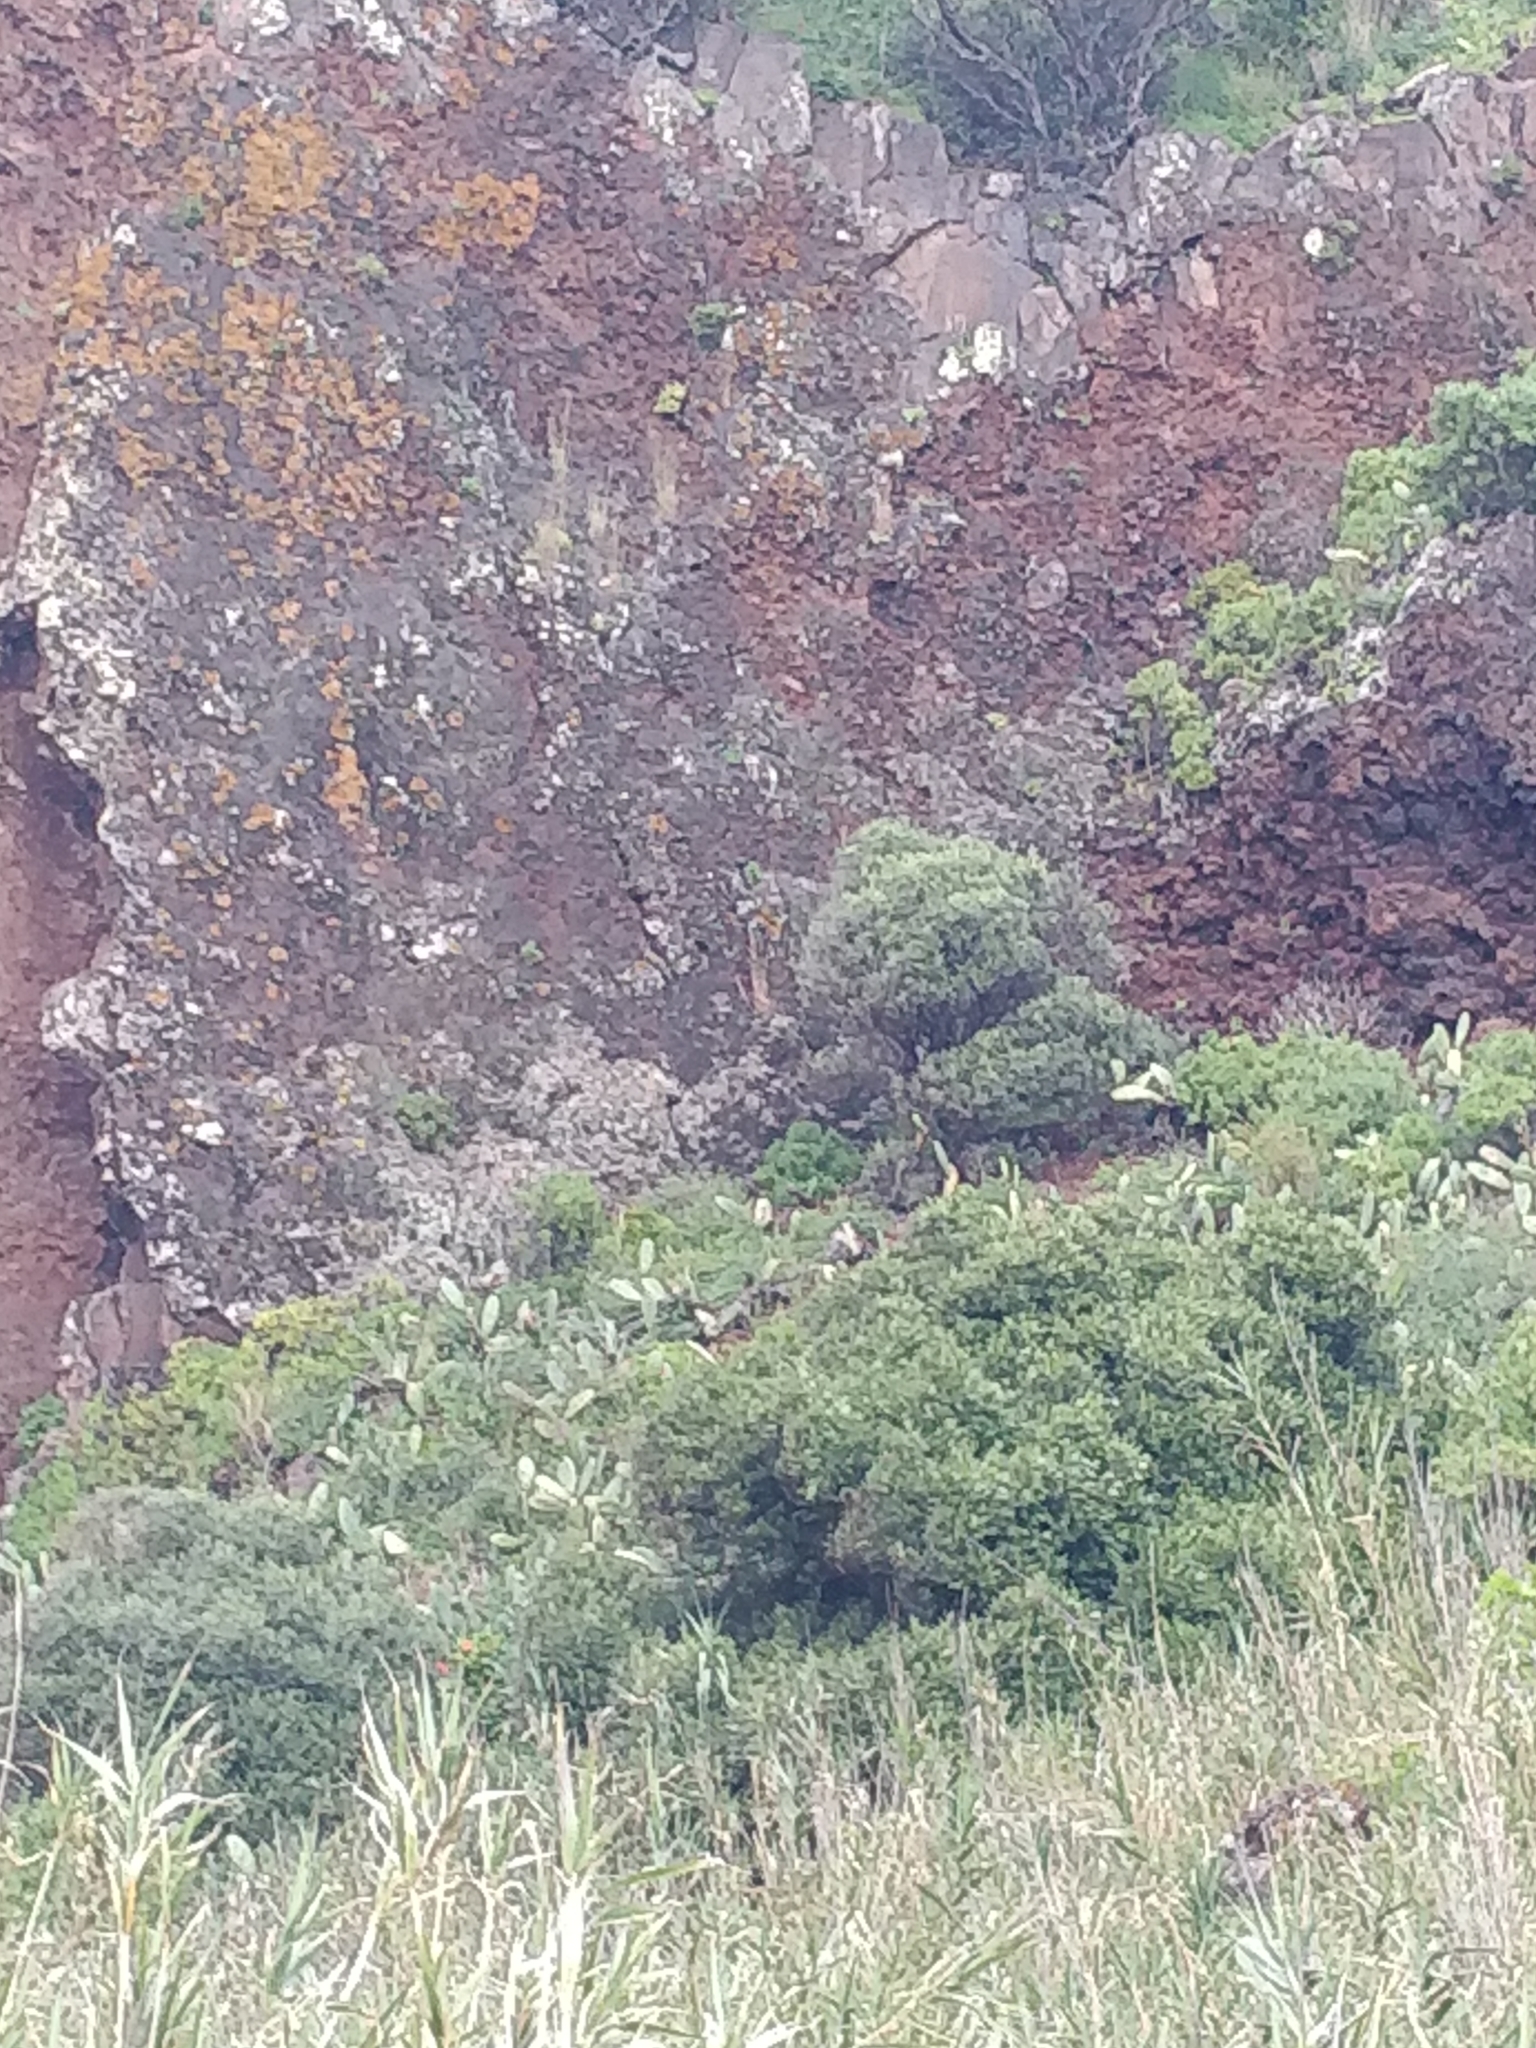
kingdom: Plantae
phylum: Tracheophyta
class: Magnoliopsida
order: Lamiales
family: Oleaceae
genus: Olea
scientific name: Olea europaea
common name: Olive
